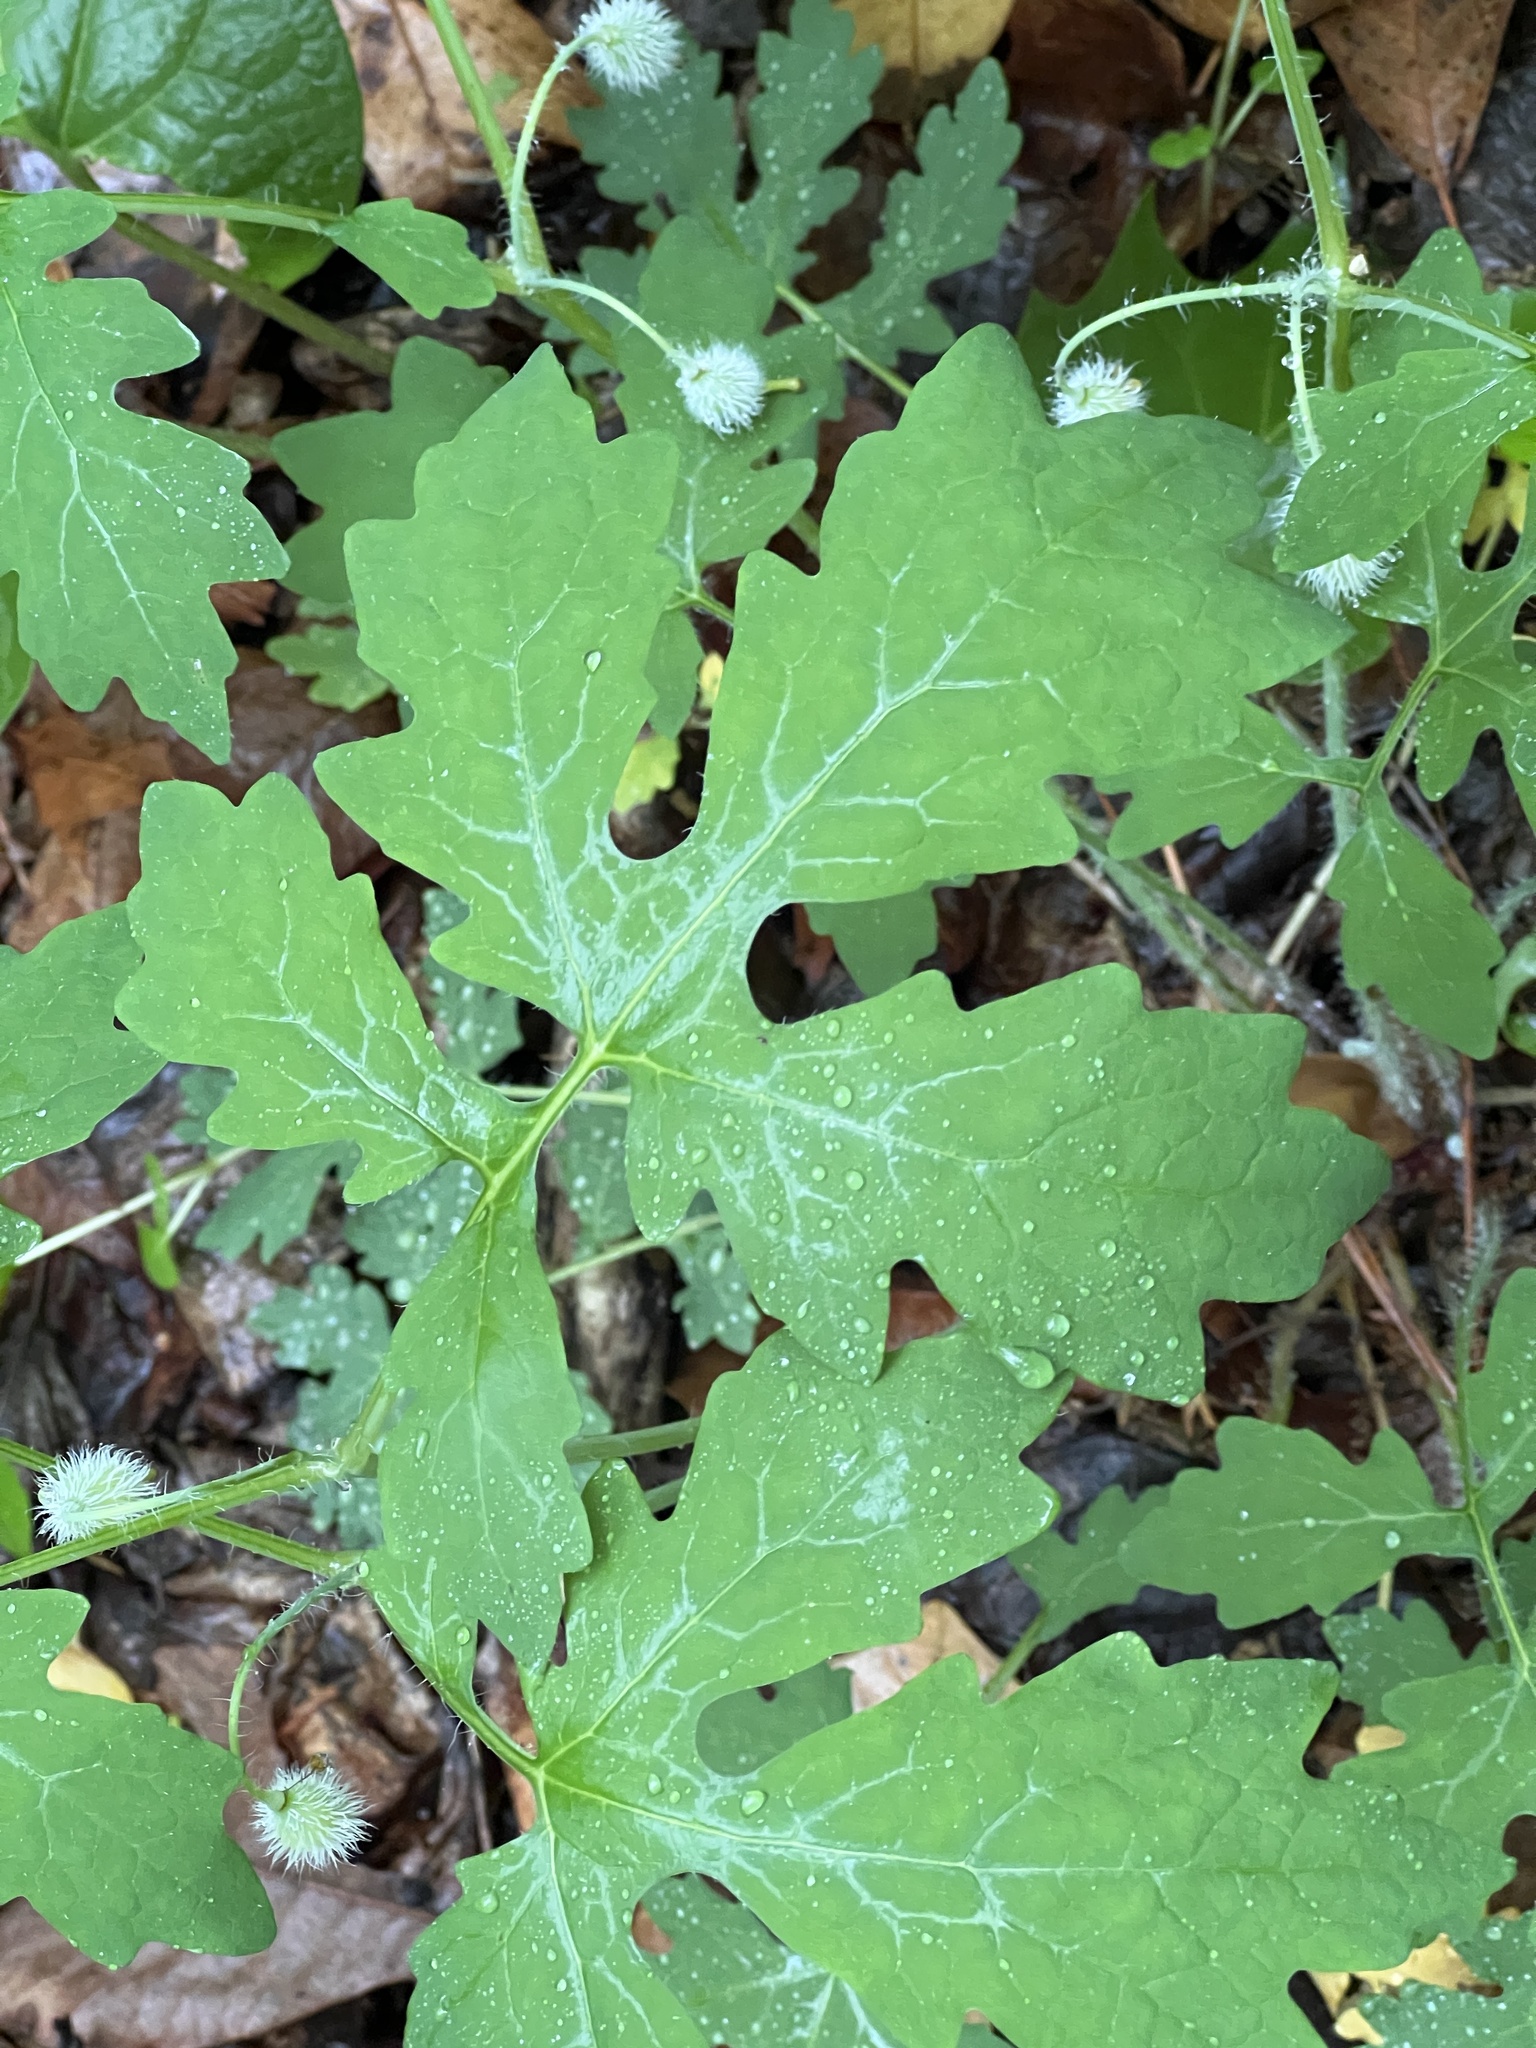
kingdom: Plantae
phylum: Tracheophyta
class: Magnoliopsida
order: Ranunculales
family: Papaveraceae
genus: Stylophorum
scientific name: Stylophorum diphyllum
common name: Celandine poppy
